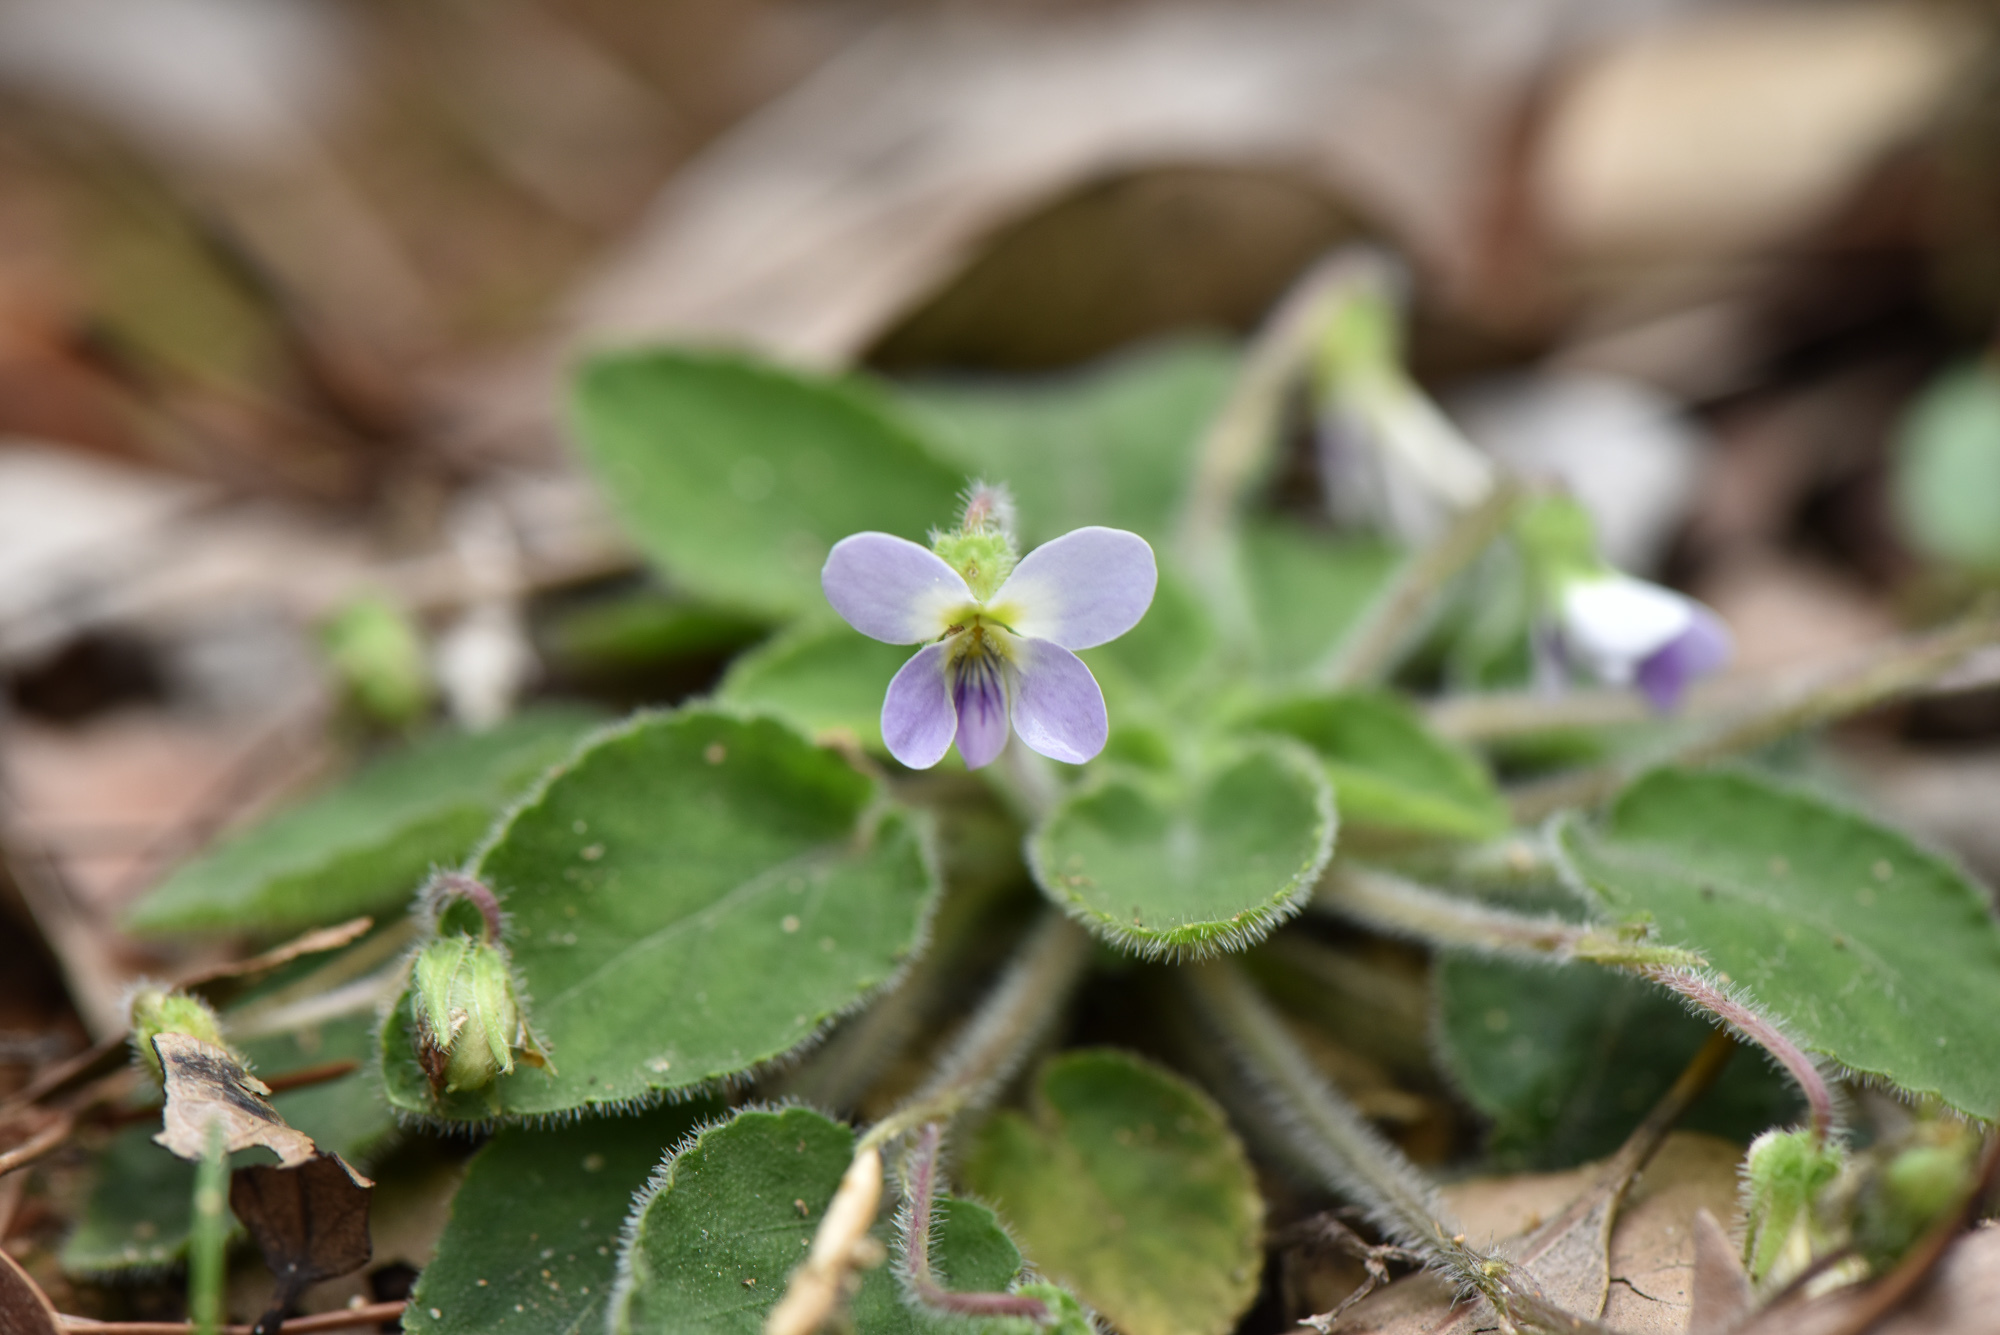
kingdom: Plantae
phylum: Tracheophyta
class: Magnoliopsida
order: Malpighiales
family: Violaceae
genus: Viola
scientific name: Viola diffusa
